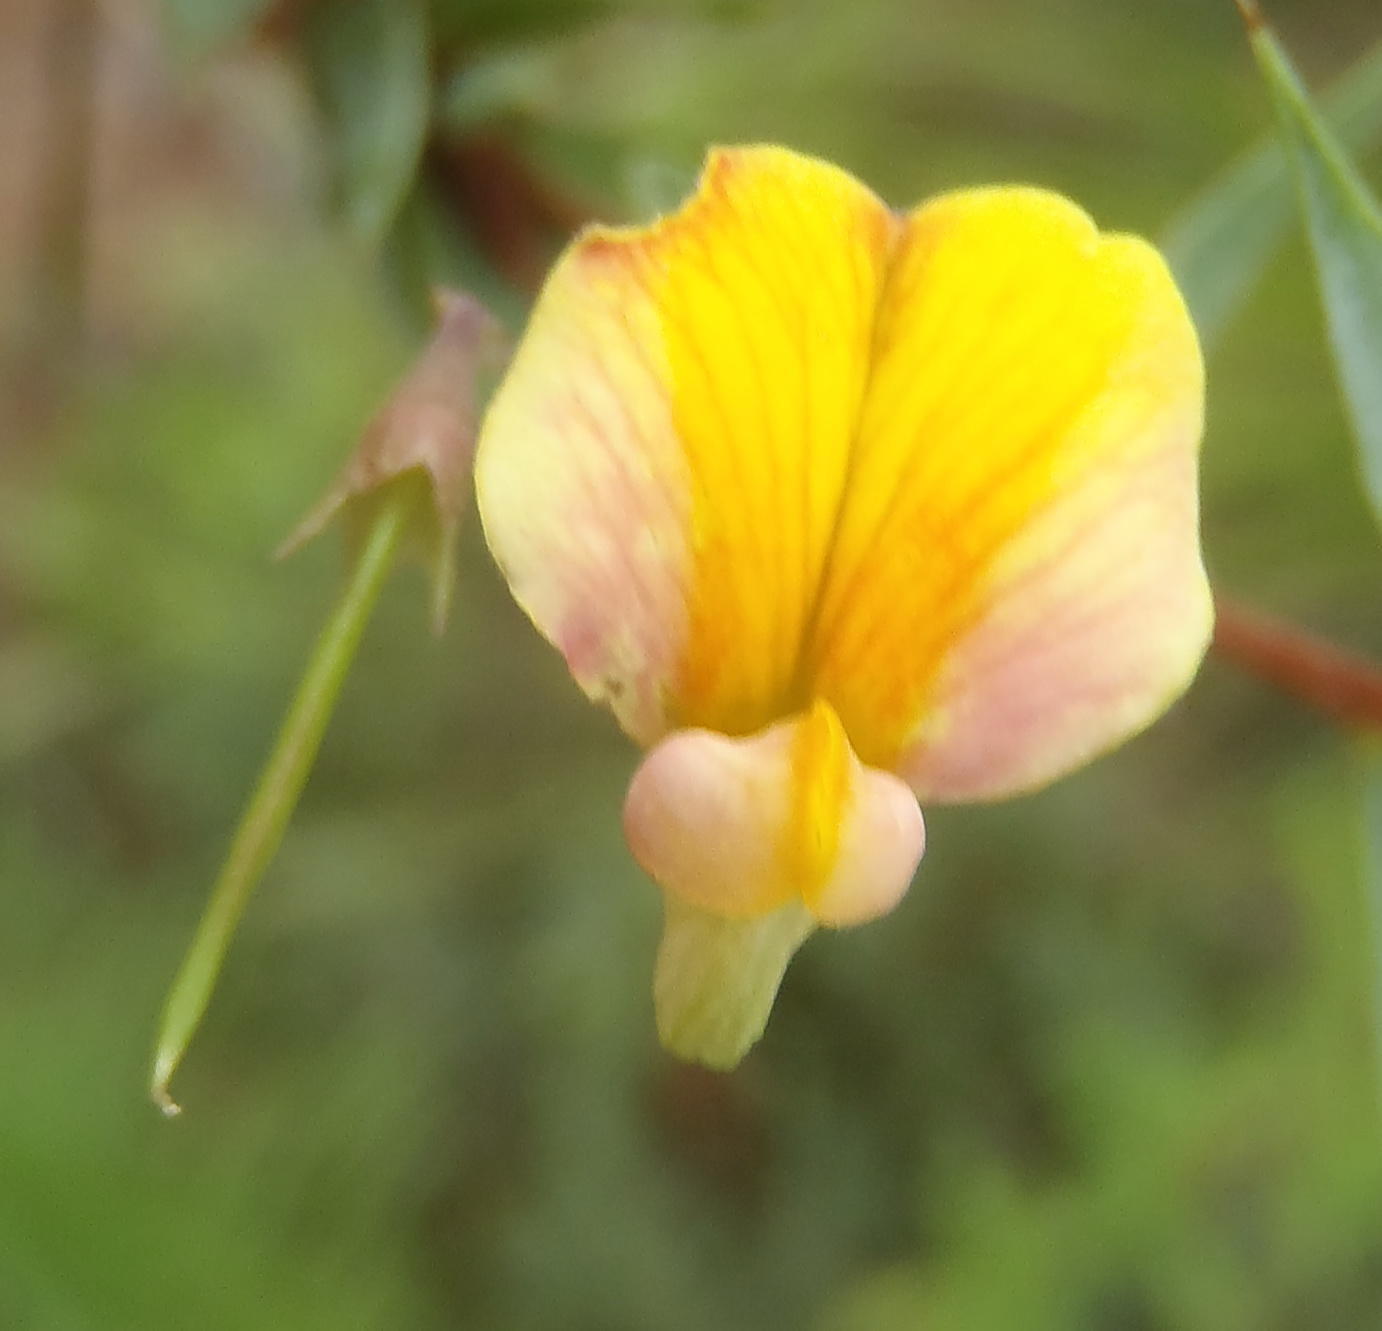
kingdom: Plantae
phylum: Tracheophyta
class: Magnoliopsida
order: Fabales
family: Fabaceae
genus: Aspalathus
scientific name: Aspalathus alpestris
